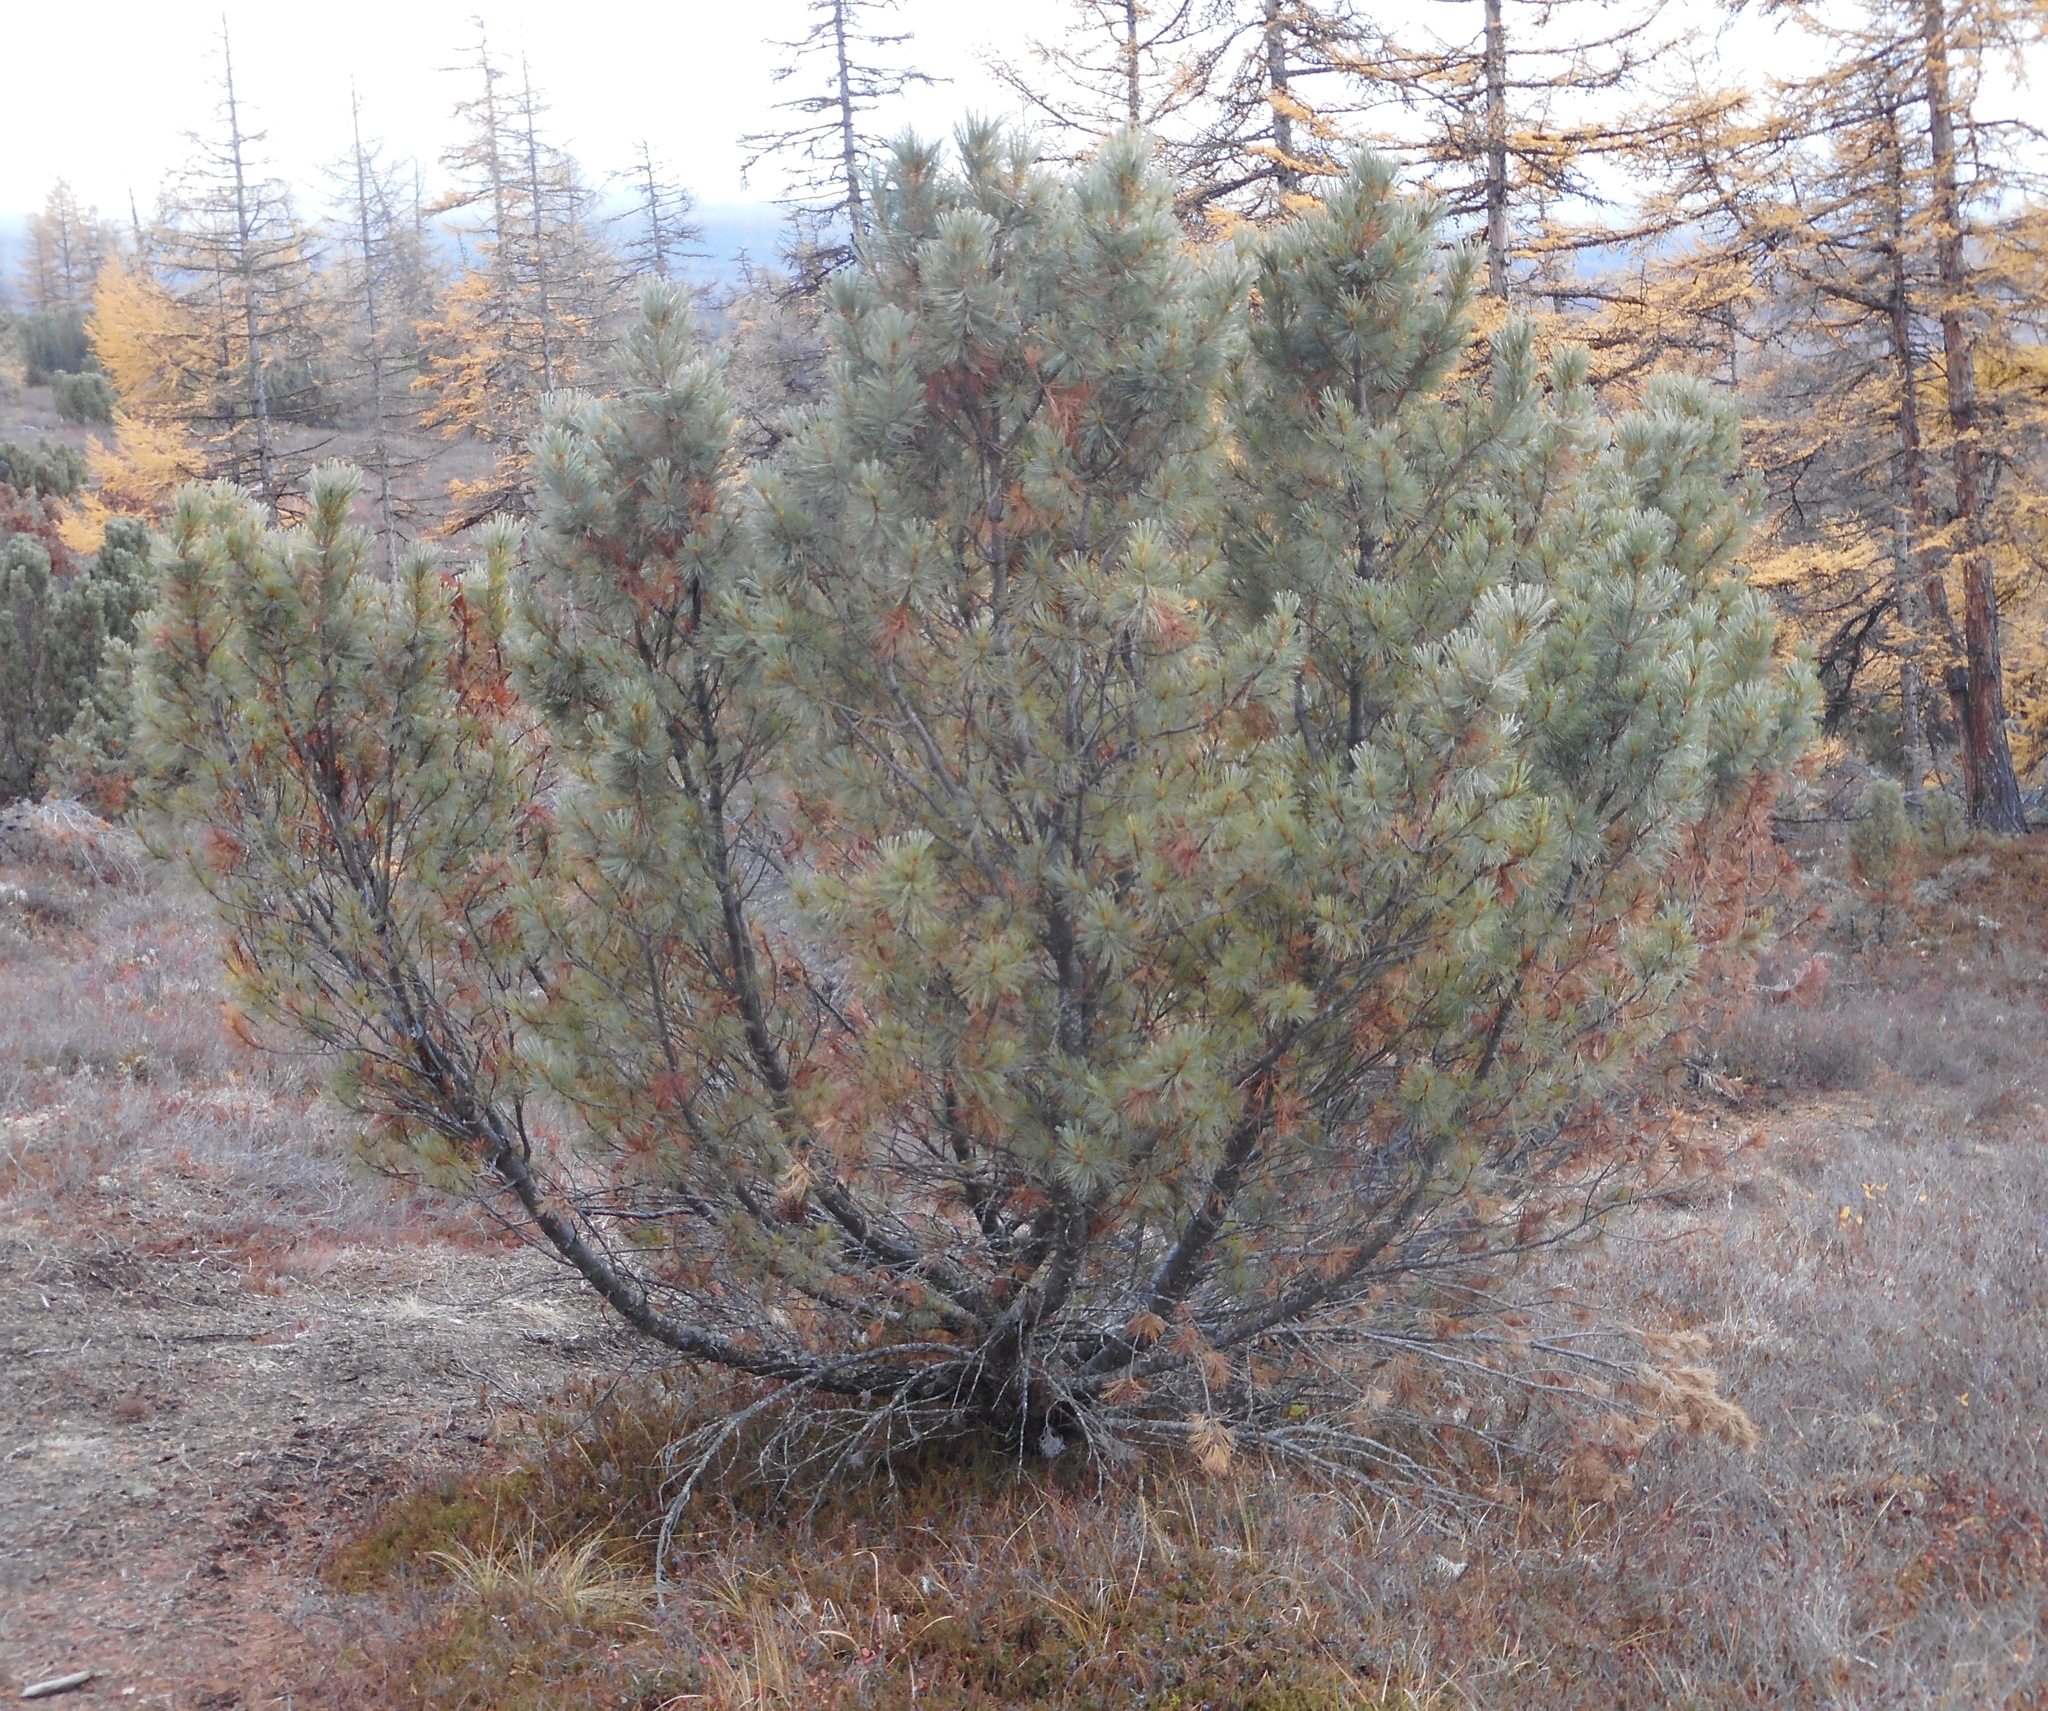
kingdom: Plantae
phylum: Tracheophyta
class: Pinopsida
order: Pinales
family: Pinaceae
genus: Pinus
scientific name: Pinus pumila
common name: Dwarf siberian pine
